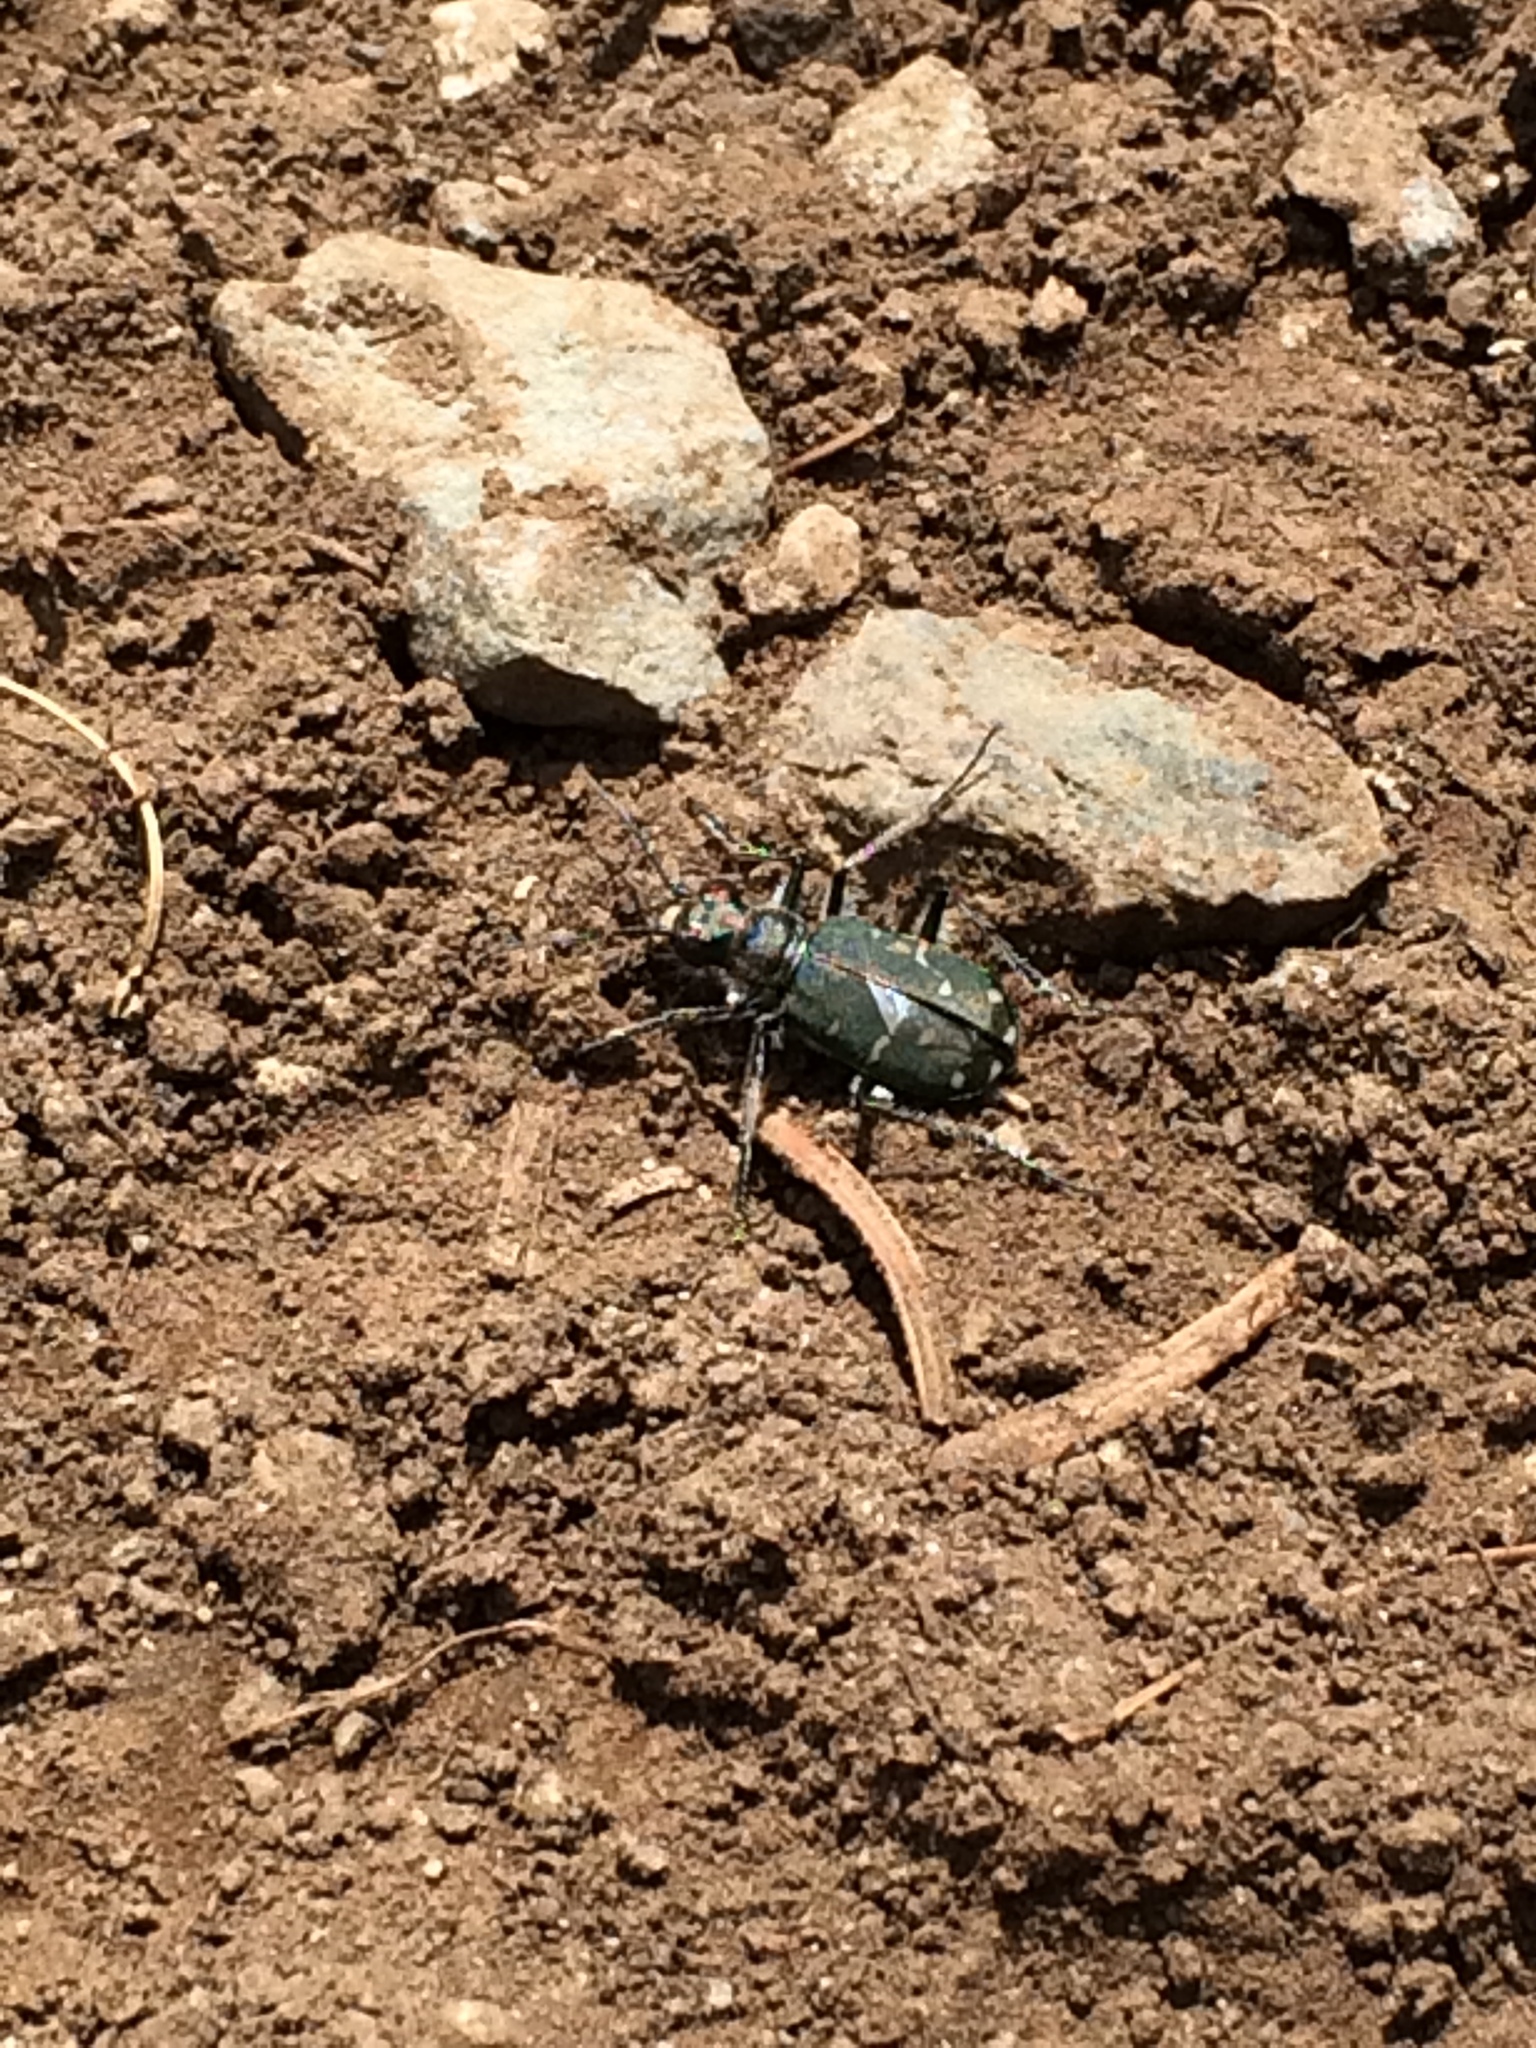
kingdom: Animalia
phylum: Arthropoda
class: Insecta
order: Coleoptera
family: Carabidae
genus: Cicindela
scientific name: Cicindela oregona
